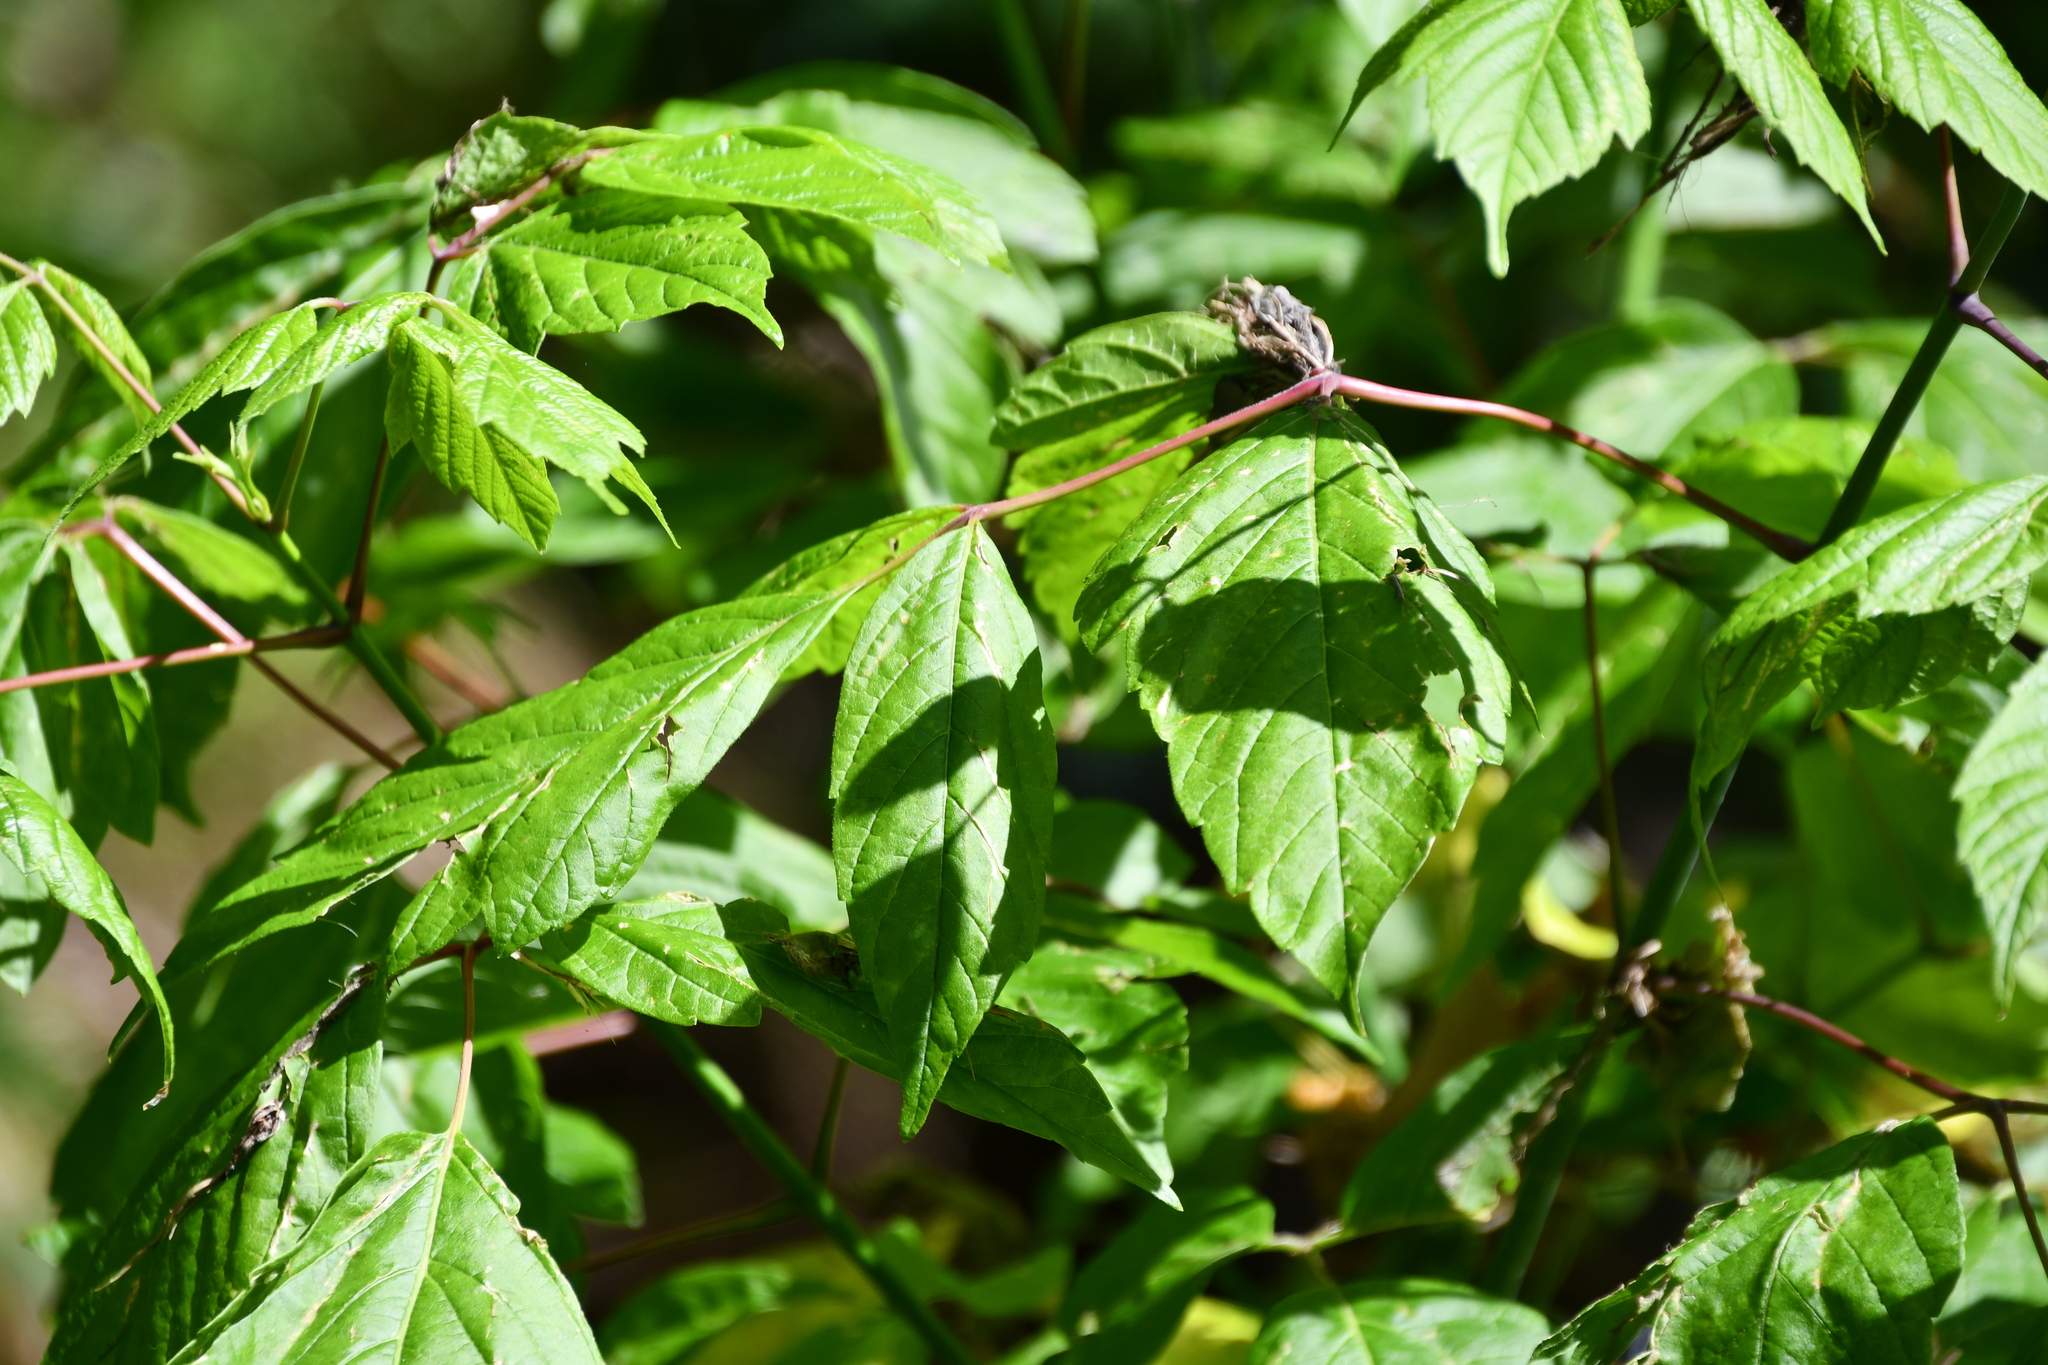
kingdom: Plantae
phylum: Tracheophyta
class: Magnoliopsida
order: Sapindales
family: Sapindaceae
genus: Acer
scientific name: Acer negundo
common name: Ashleaf maple
